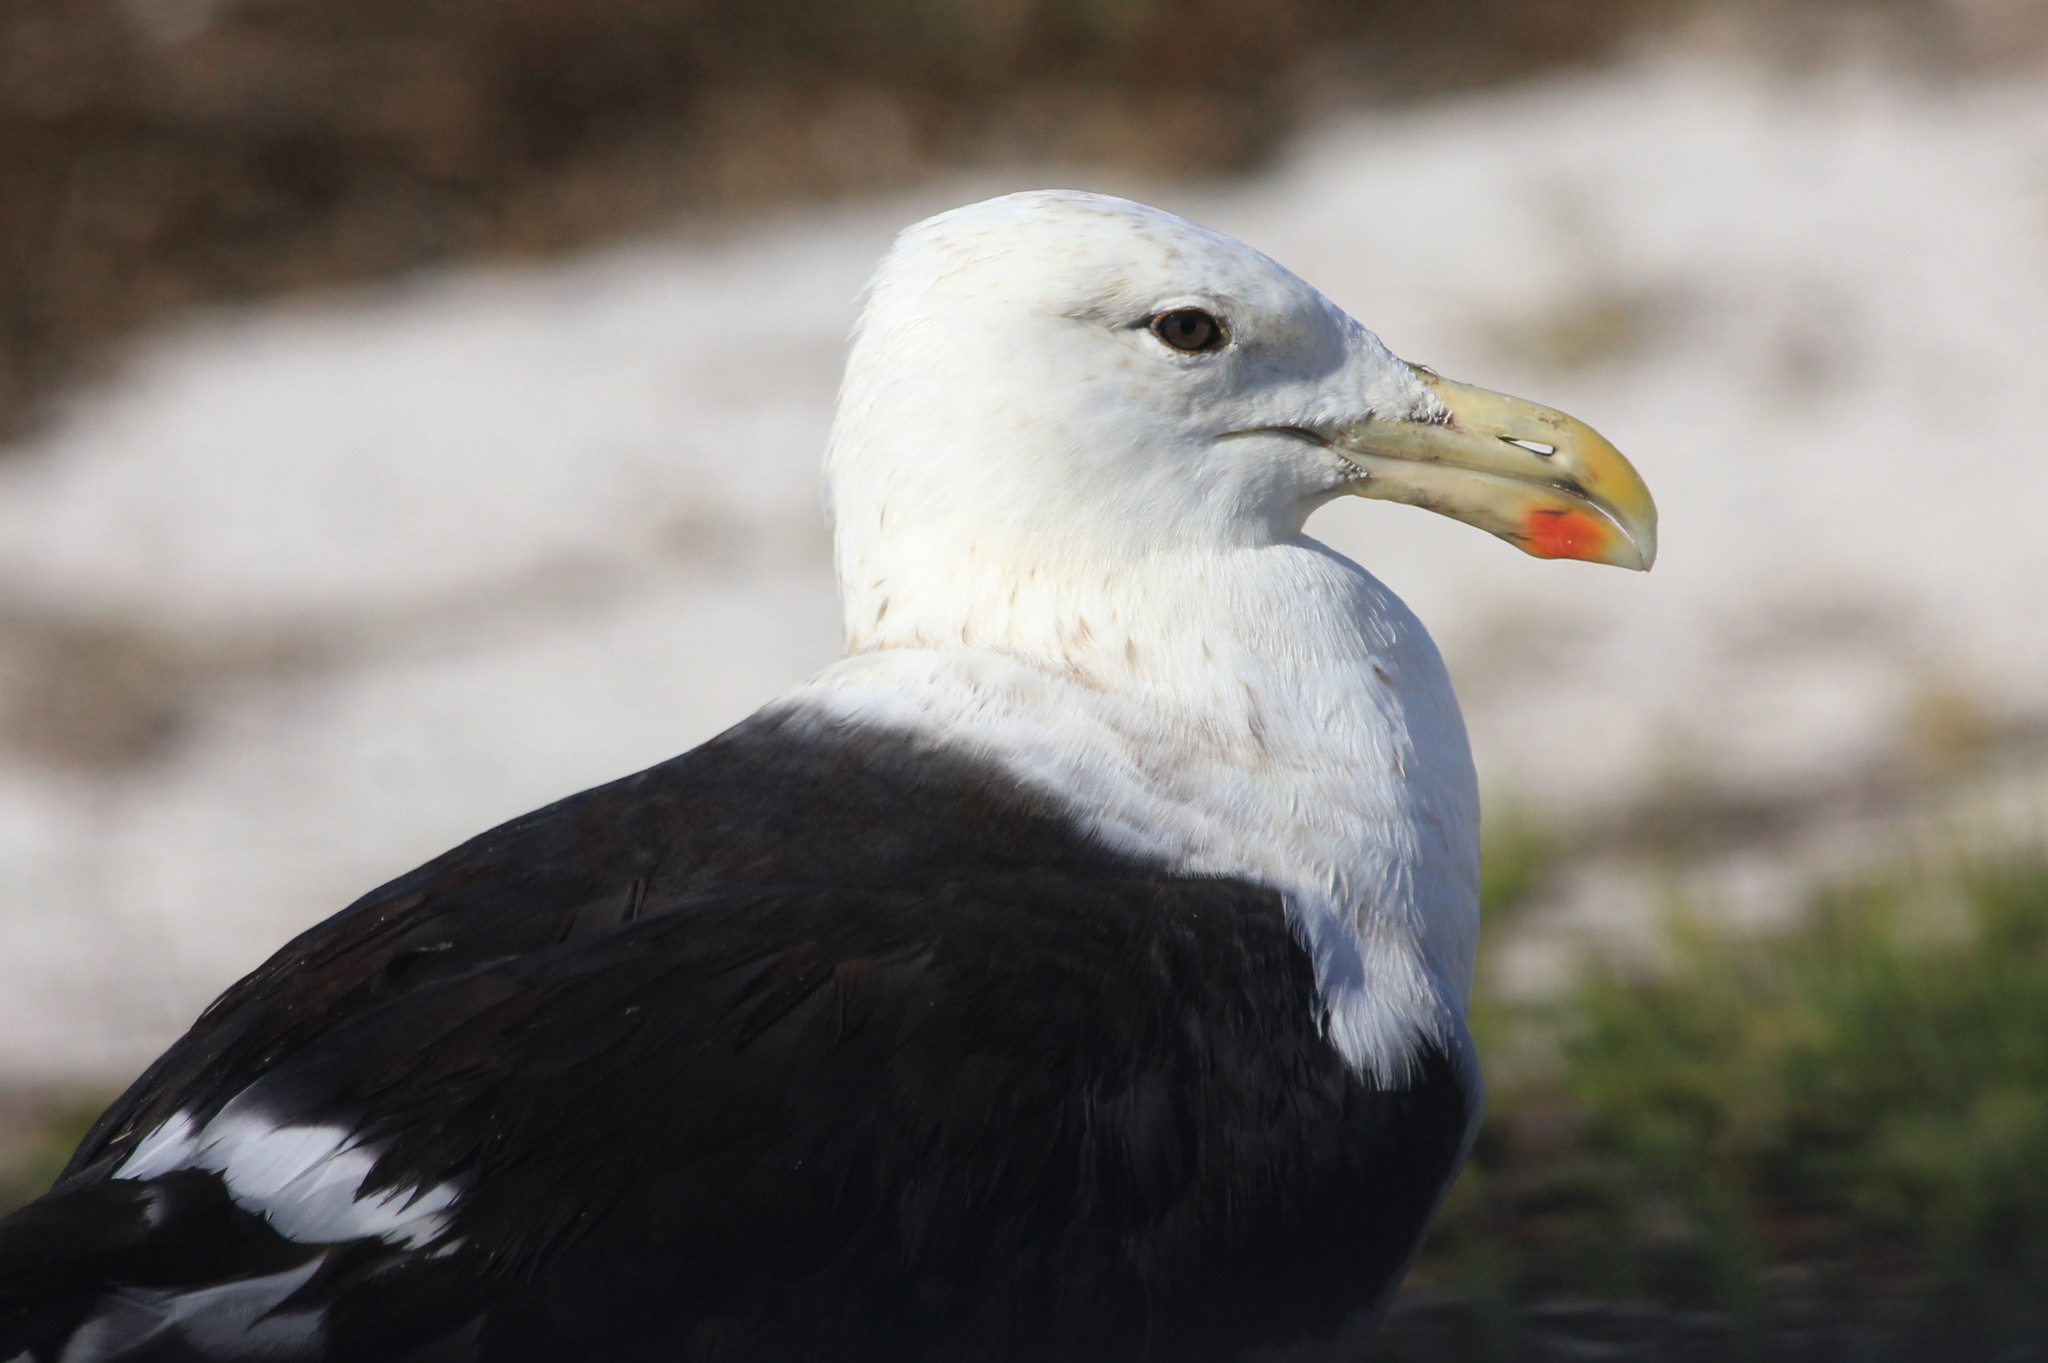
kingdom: Animalia
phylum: Chordata
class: Aves
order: Charadriiformes
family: Laridae
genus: Larus
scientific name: Larus dominicanus
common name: Kelp gull
